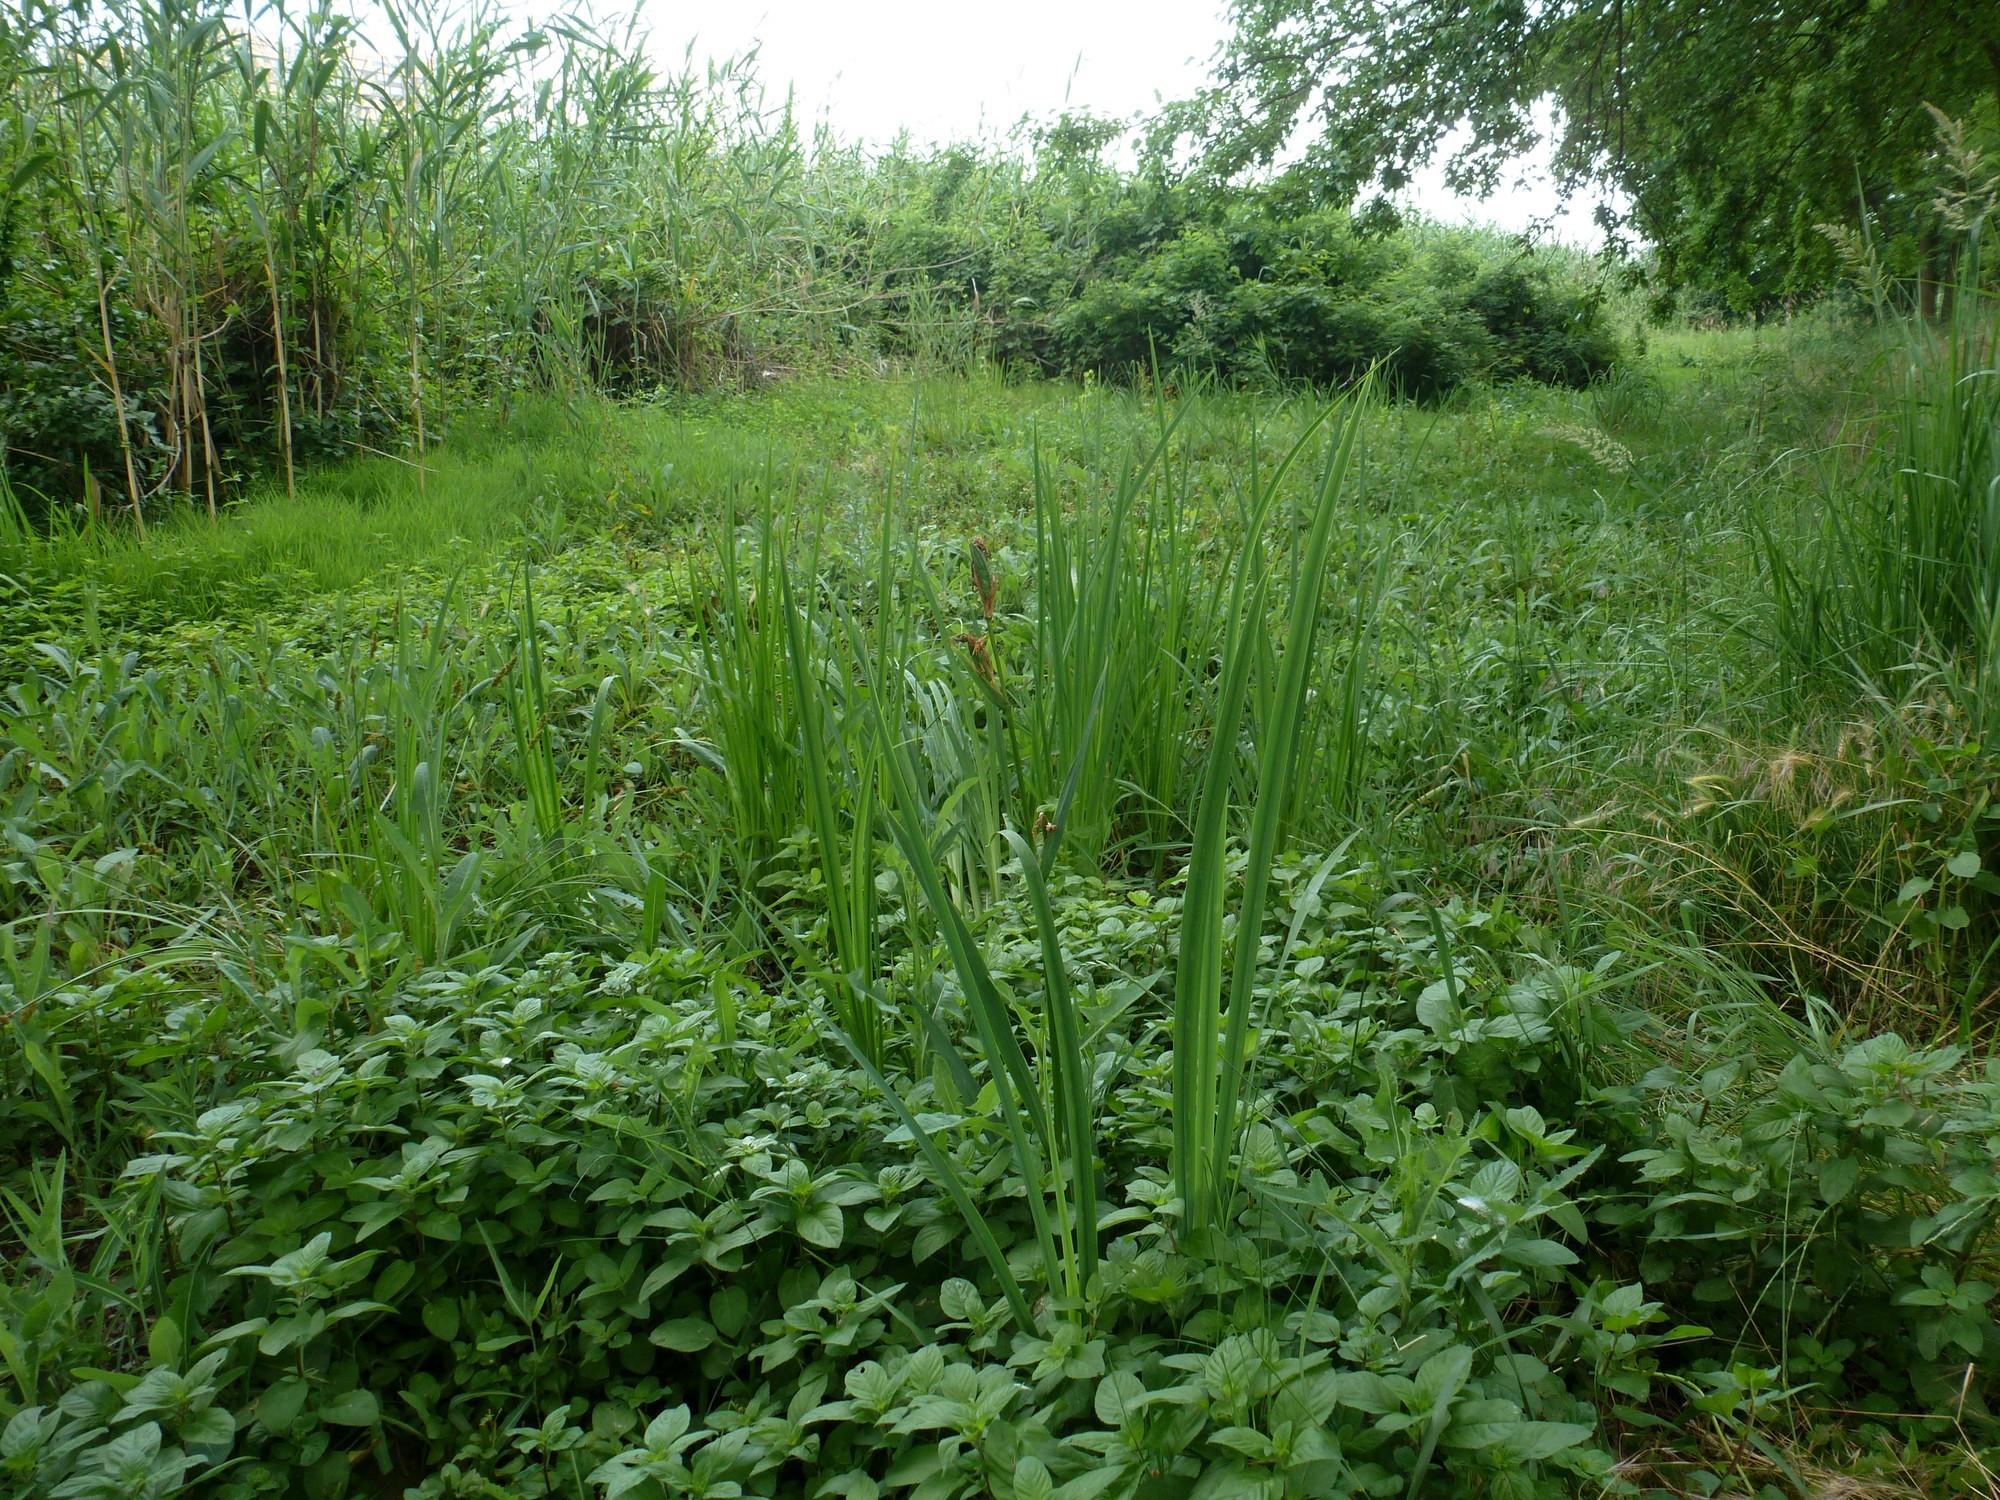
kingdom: Plantae
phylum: Tracheophyta
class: Liliopsida
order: Asparagales
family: Iridaceae
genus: Iris
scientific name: Iris pseudacorus
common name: Yellow flag
